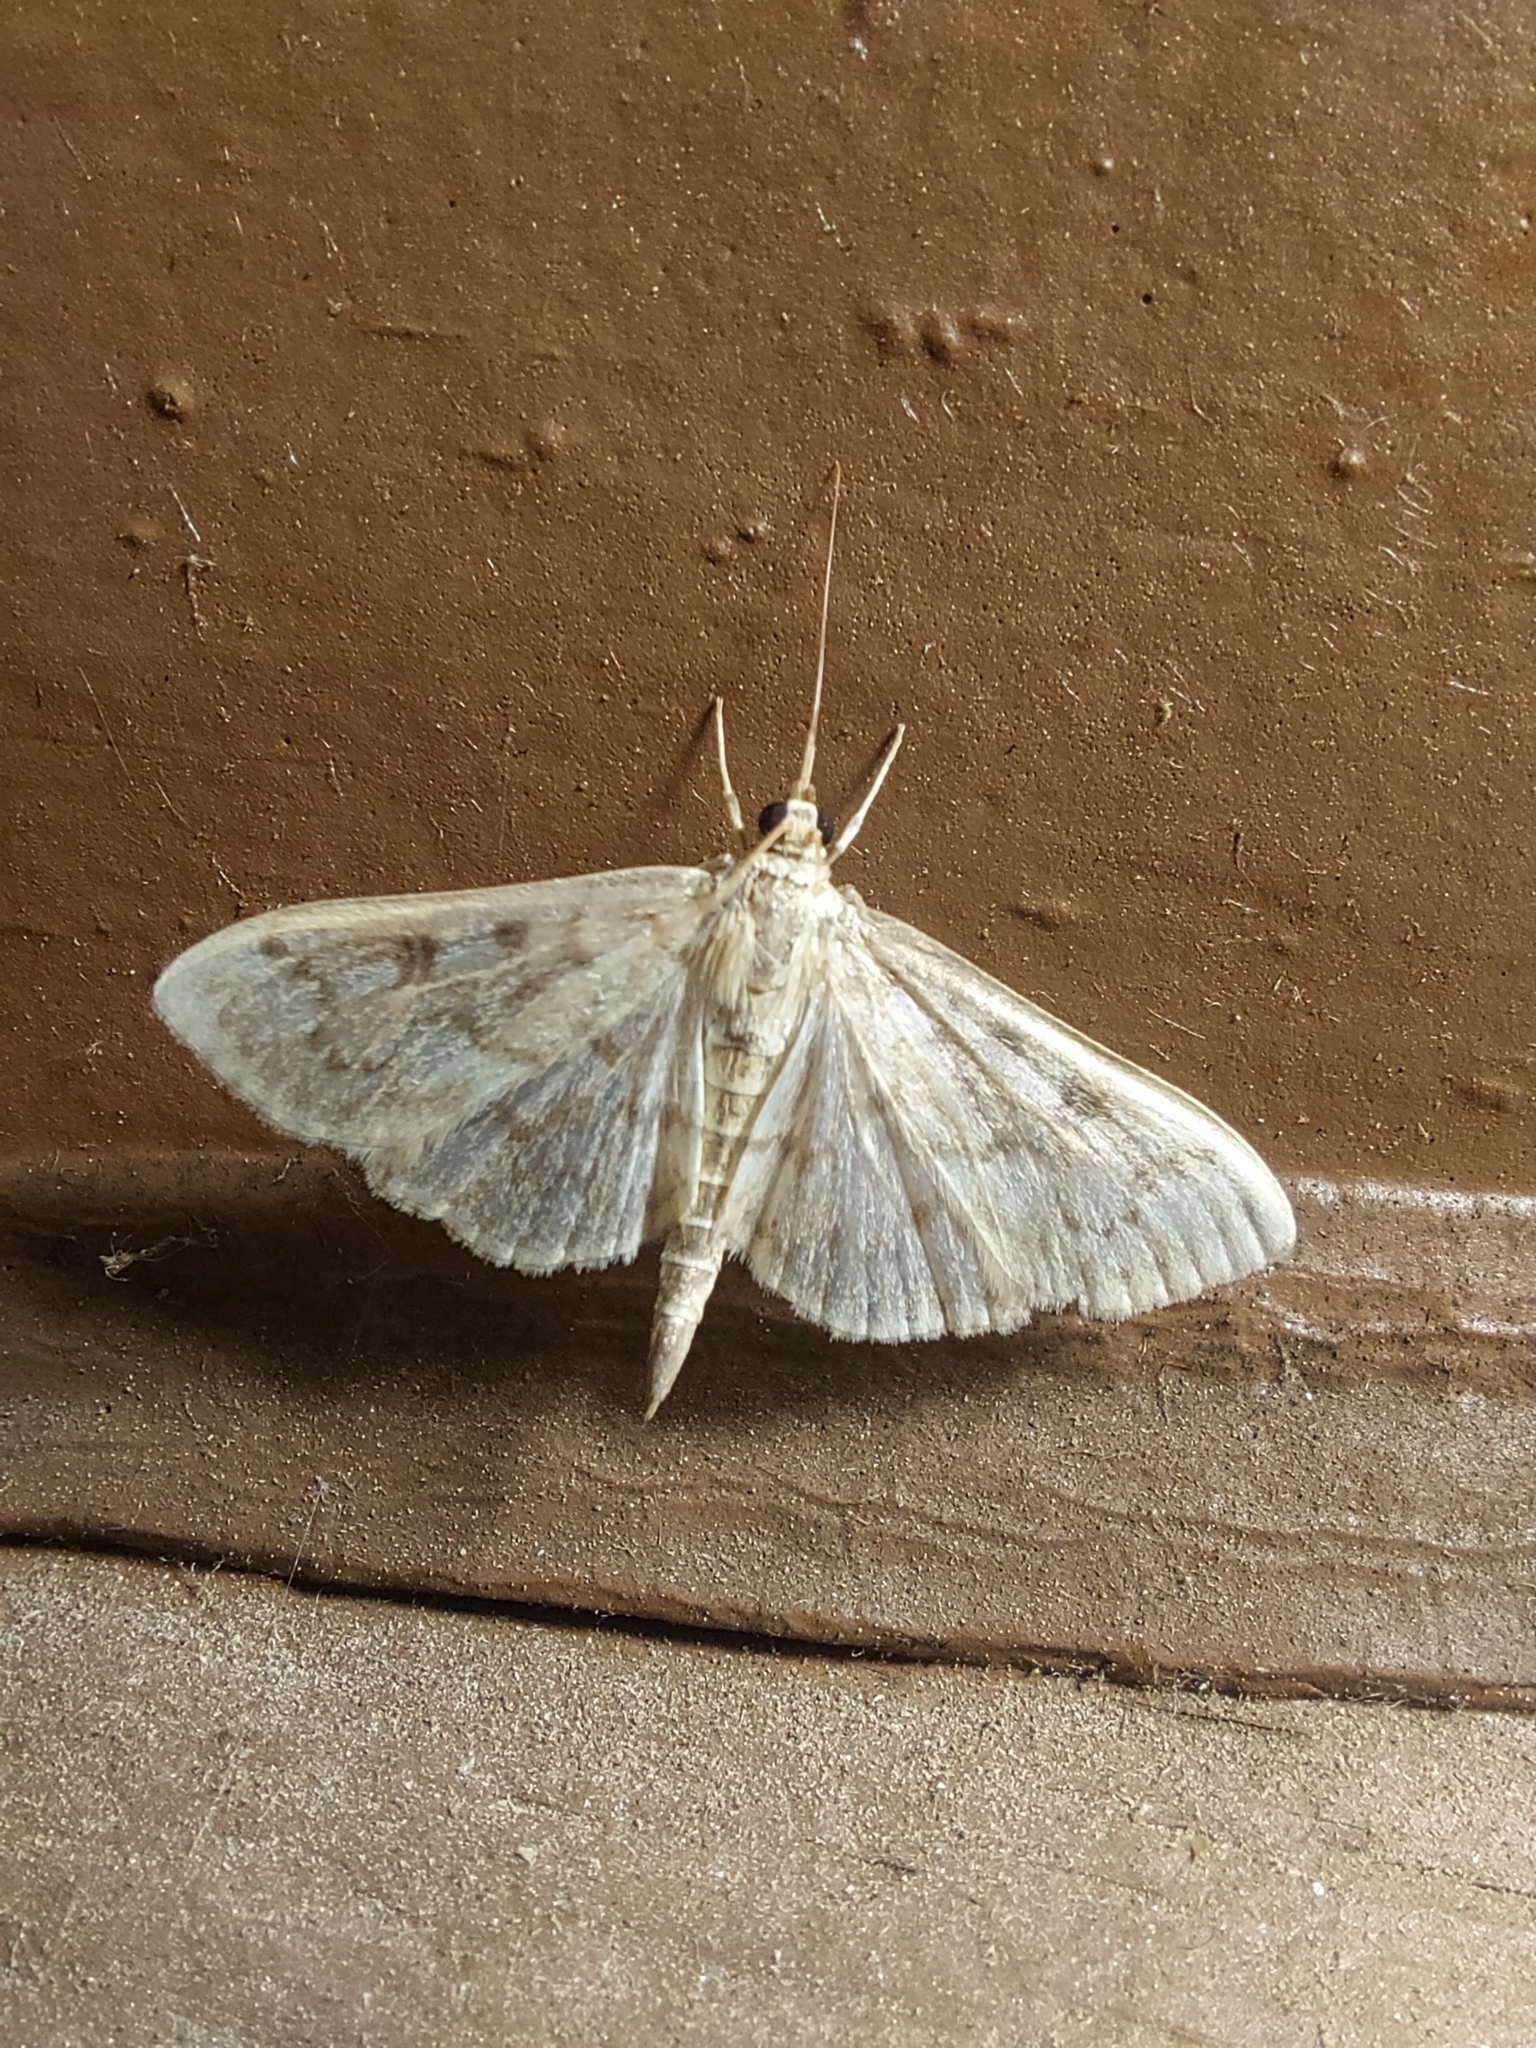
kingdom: Animalia
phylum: Arthropoda
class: Insecta
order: Lepidoptera
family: Crambidae
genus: Herpetogramma
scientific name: Herpetogramma aquilonalis
